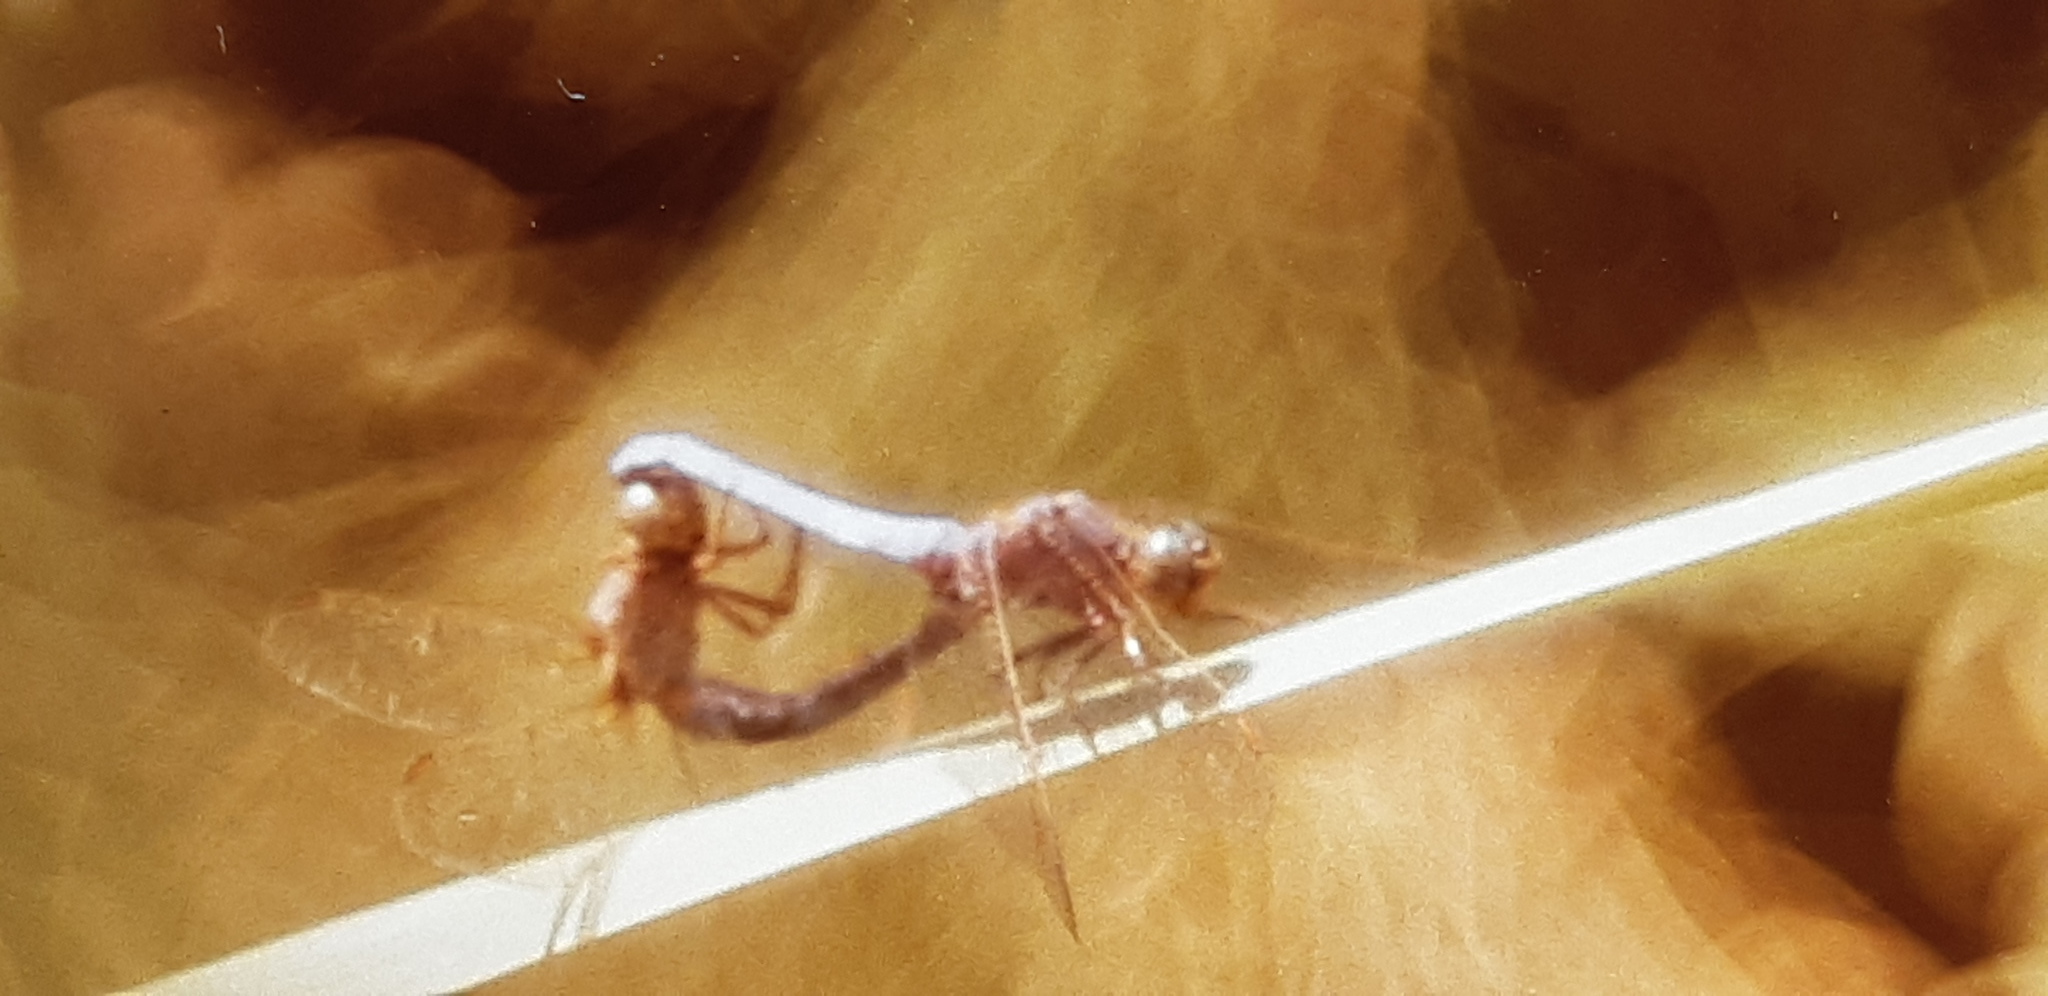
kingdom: Animalia
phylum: Arthropoda
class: Insecta
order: Odonata
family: Libellulidae
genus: Orthetrum
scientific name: Orthetrum coerulescens
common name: Keeled skimmer
